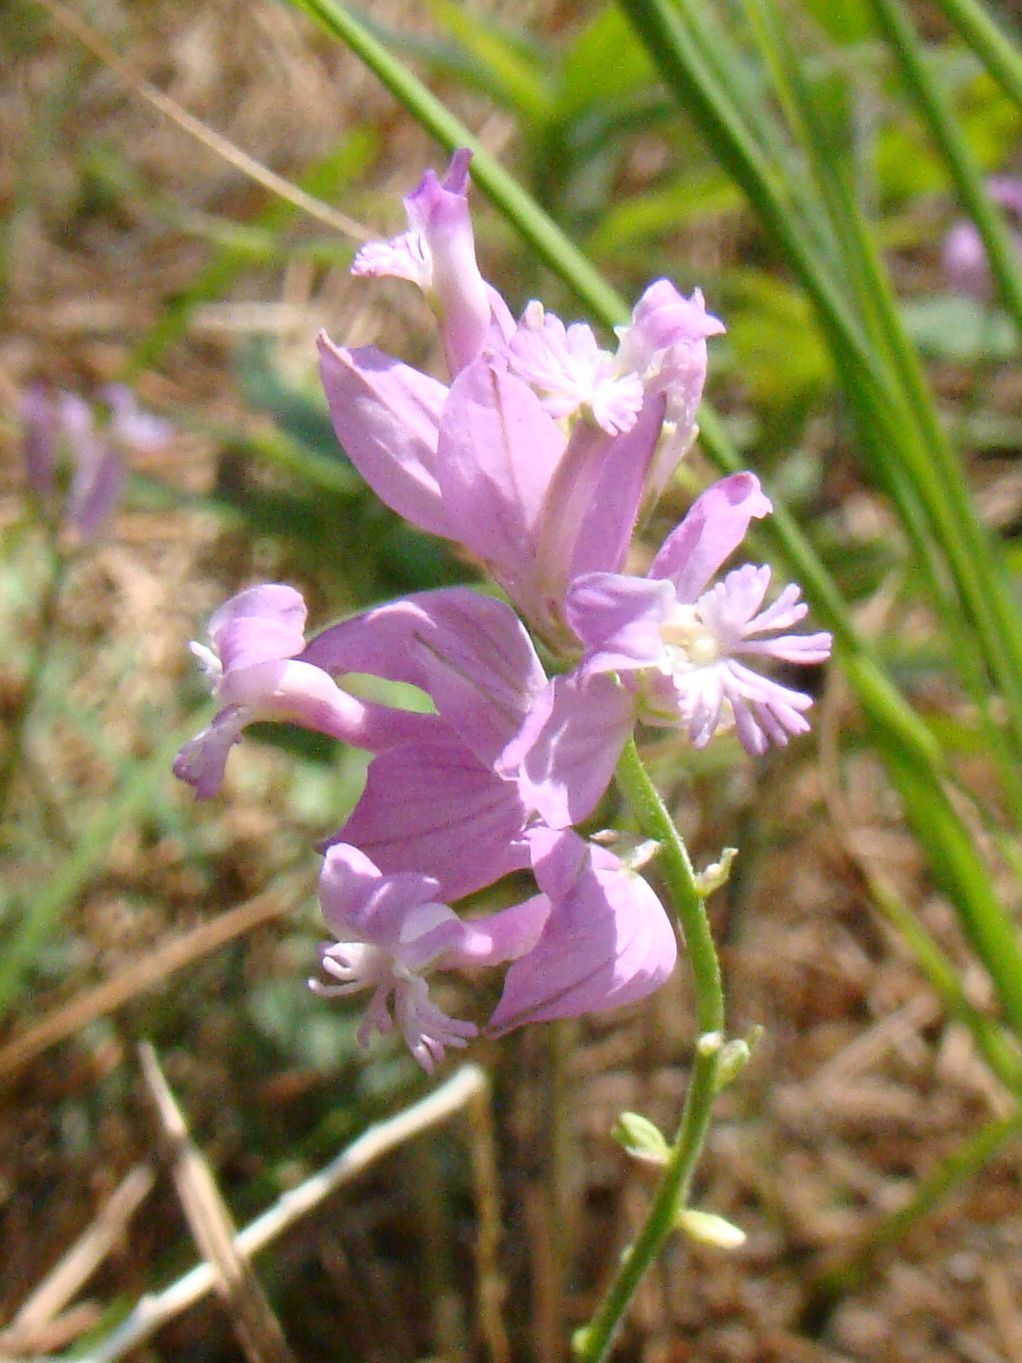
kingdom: Plantae
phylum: Tracheophyta
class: Magnoliopsida
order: Fabales
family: Polygalaceae
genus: Polygala
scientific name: Polygala major
